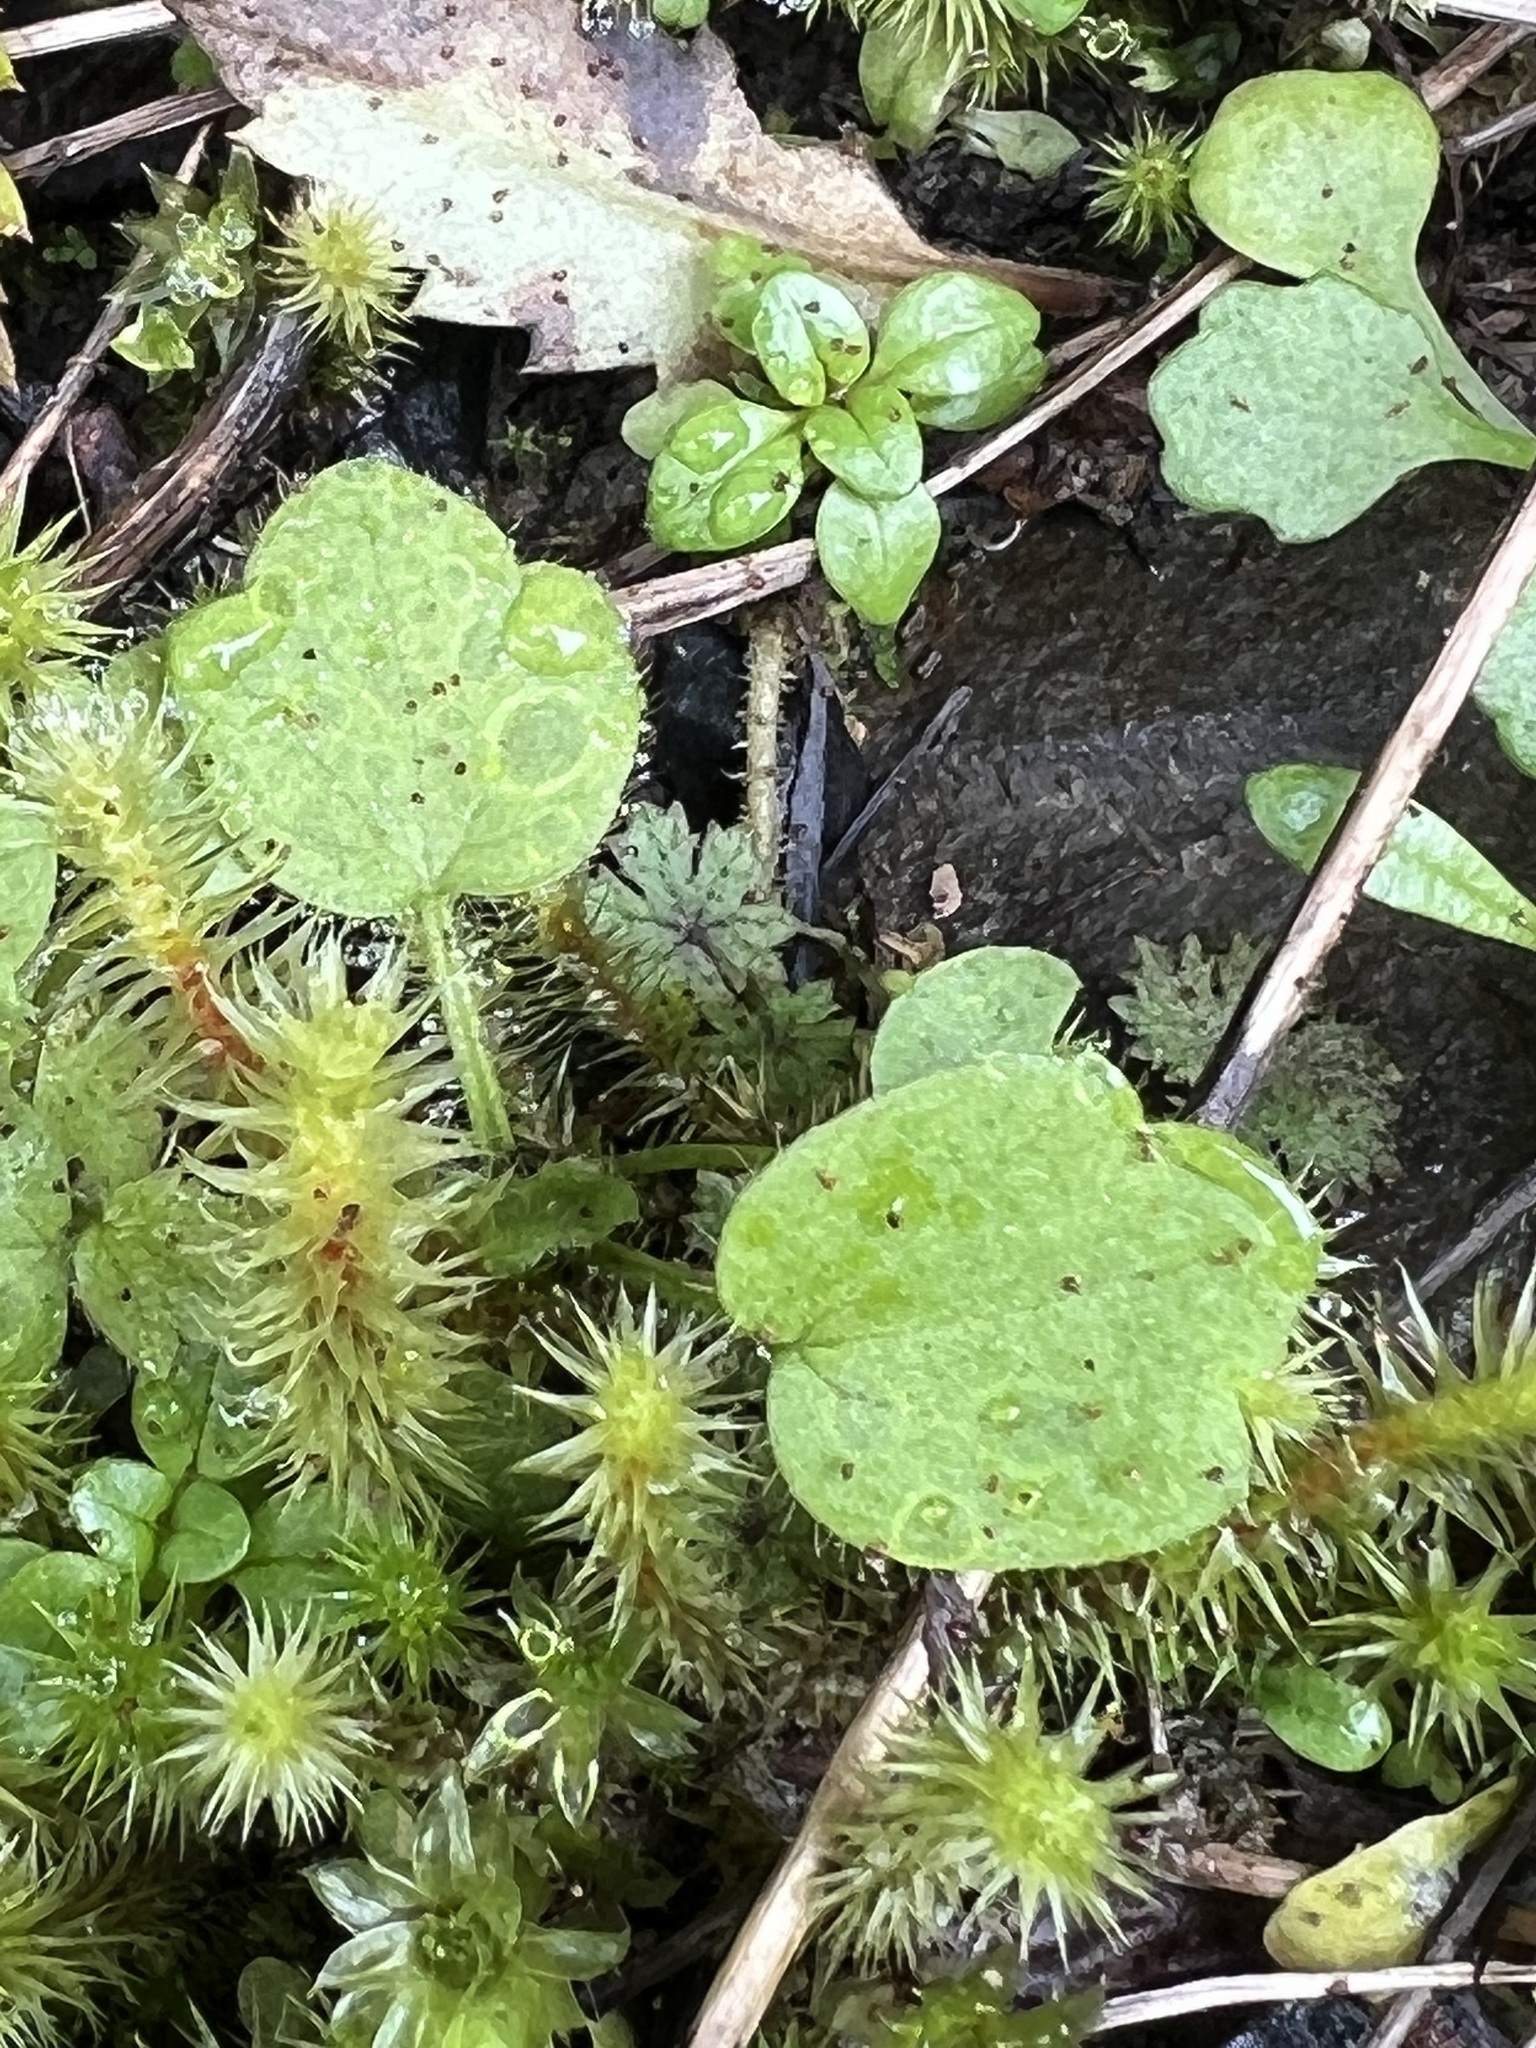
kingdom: Plantae
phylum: Tracheophyta
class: Magnoliopsida
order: Ranunculales
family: Ranunculaceae
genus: Ranunculus
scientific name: Ranunculus reflexus
